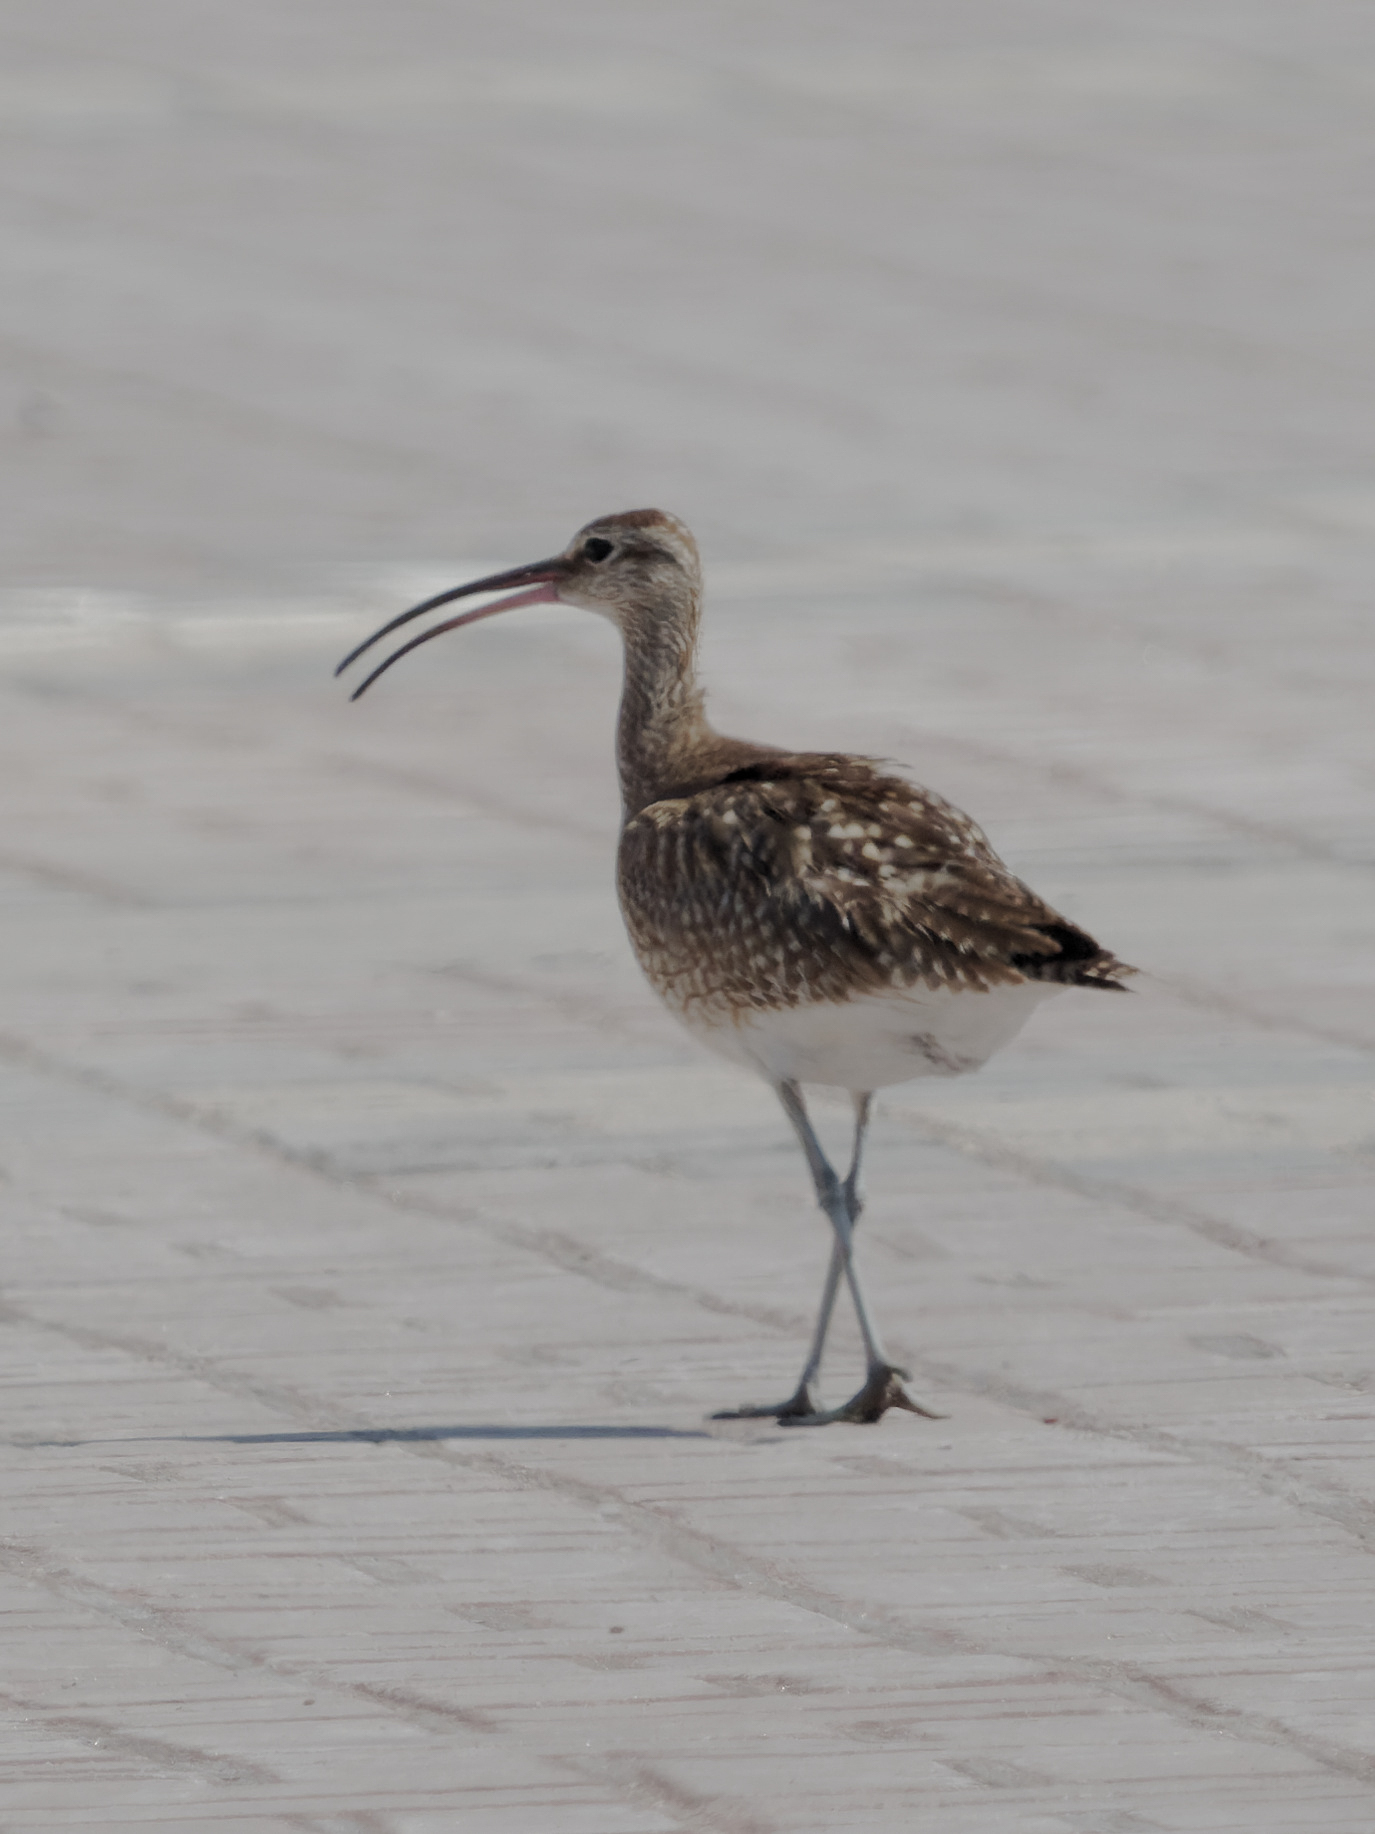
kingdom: Animalia
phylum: Chordata
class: Aves
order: Charadriiformes
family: Scolopacidae
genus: Numenius
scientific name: Numenius phaeopus
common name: Whimbrel
